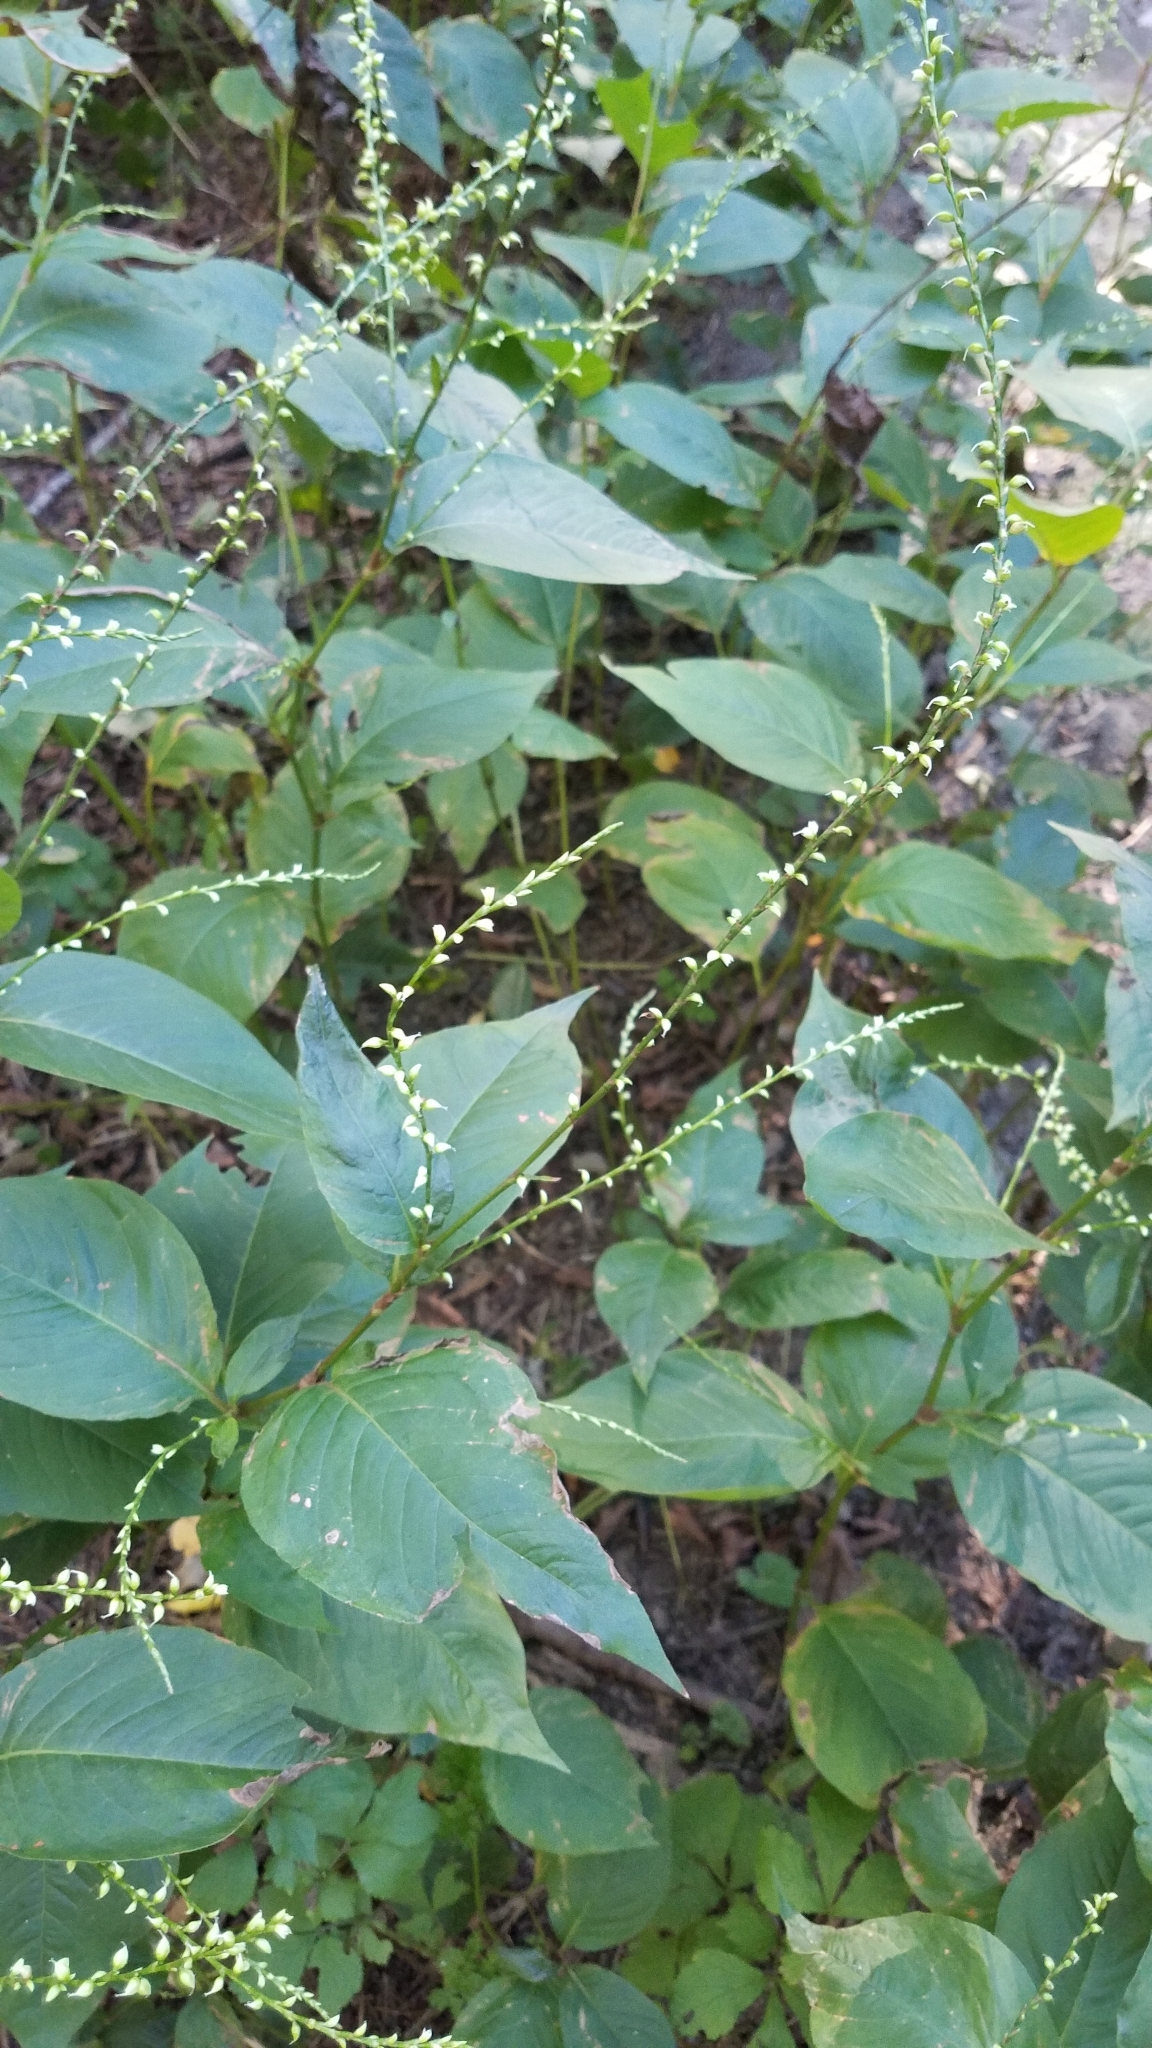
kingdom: Plantae
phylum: Tracheophyta
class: Magnoliopsida
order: Caryophyllales
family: Polygonaceae
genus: Persicaria
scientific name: Persicaria virginiana
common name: Jumpseed
